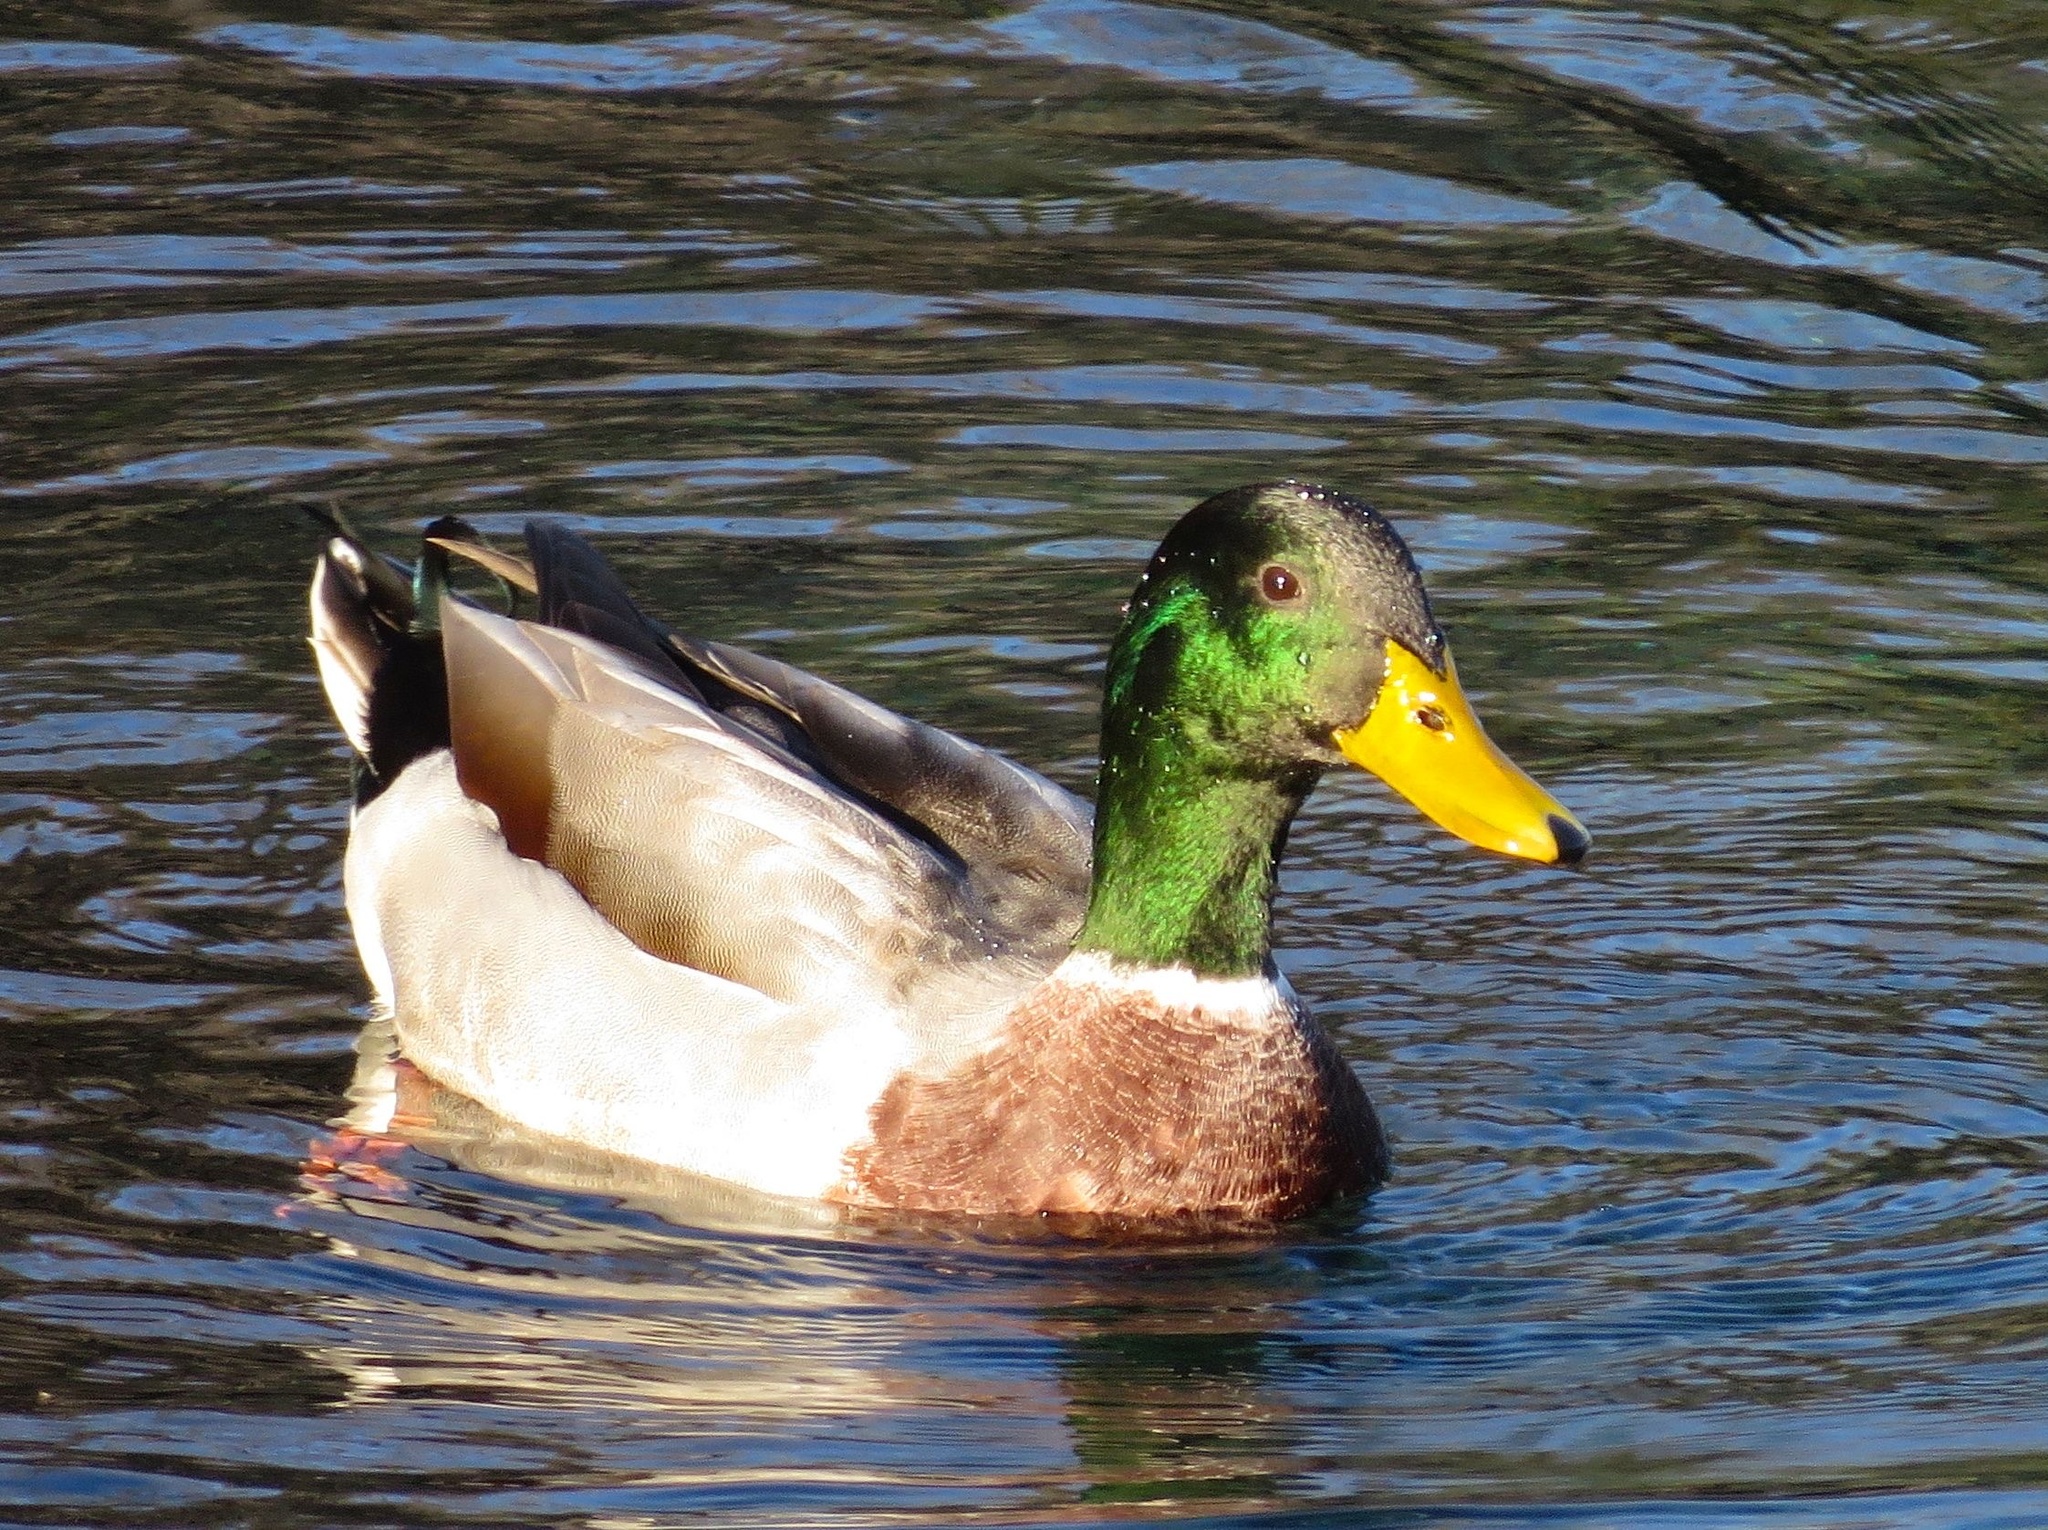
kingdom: Animalia
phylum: Chordata
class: Aves
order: Anseriformes
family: Anatidae
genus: Anas
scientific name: Anas platyrhynchos
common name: Mallard
